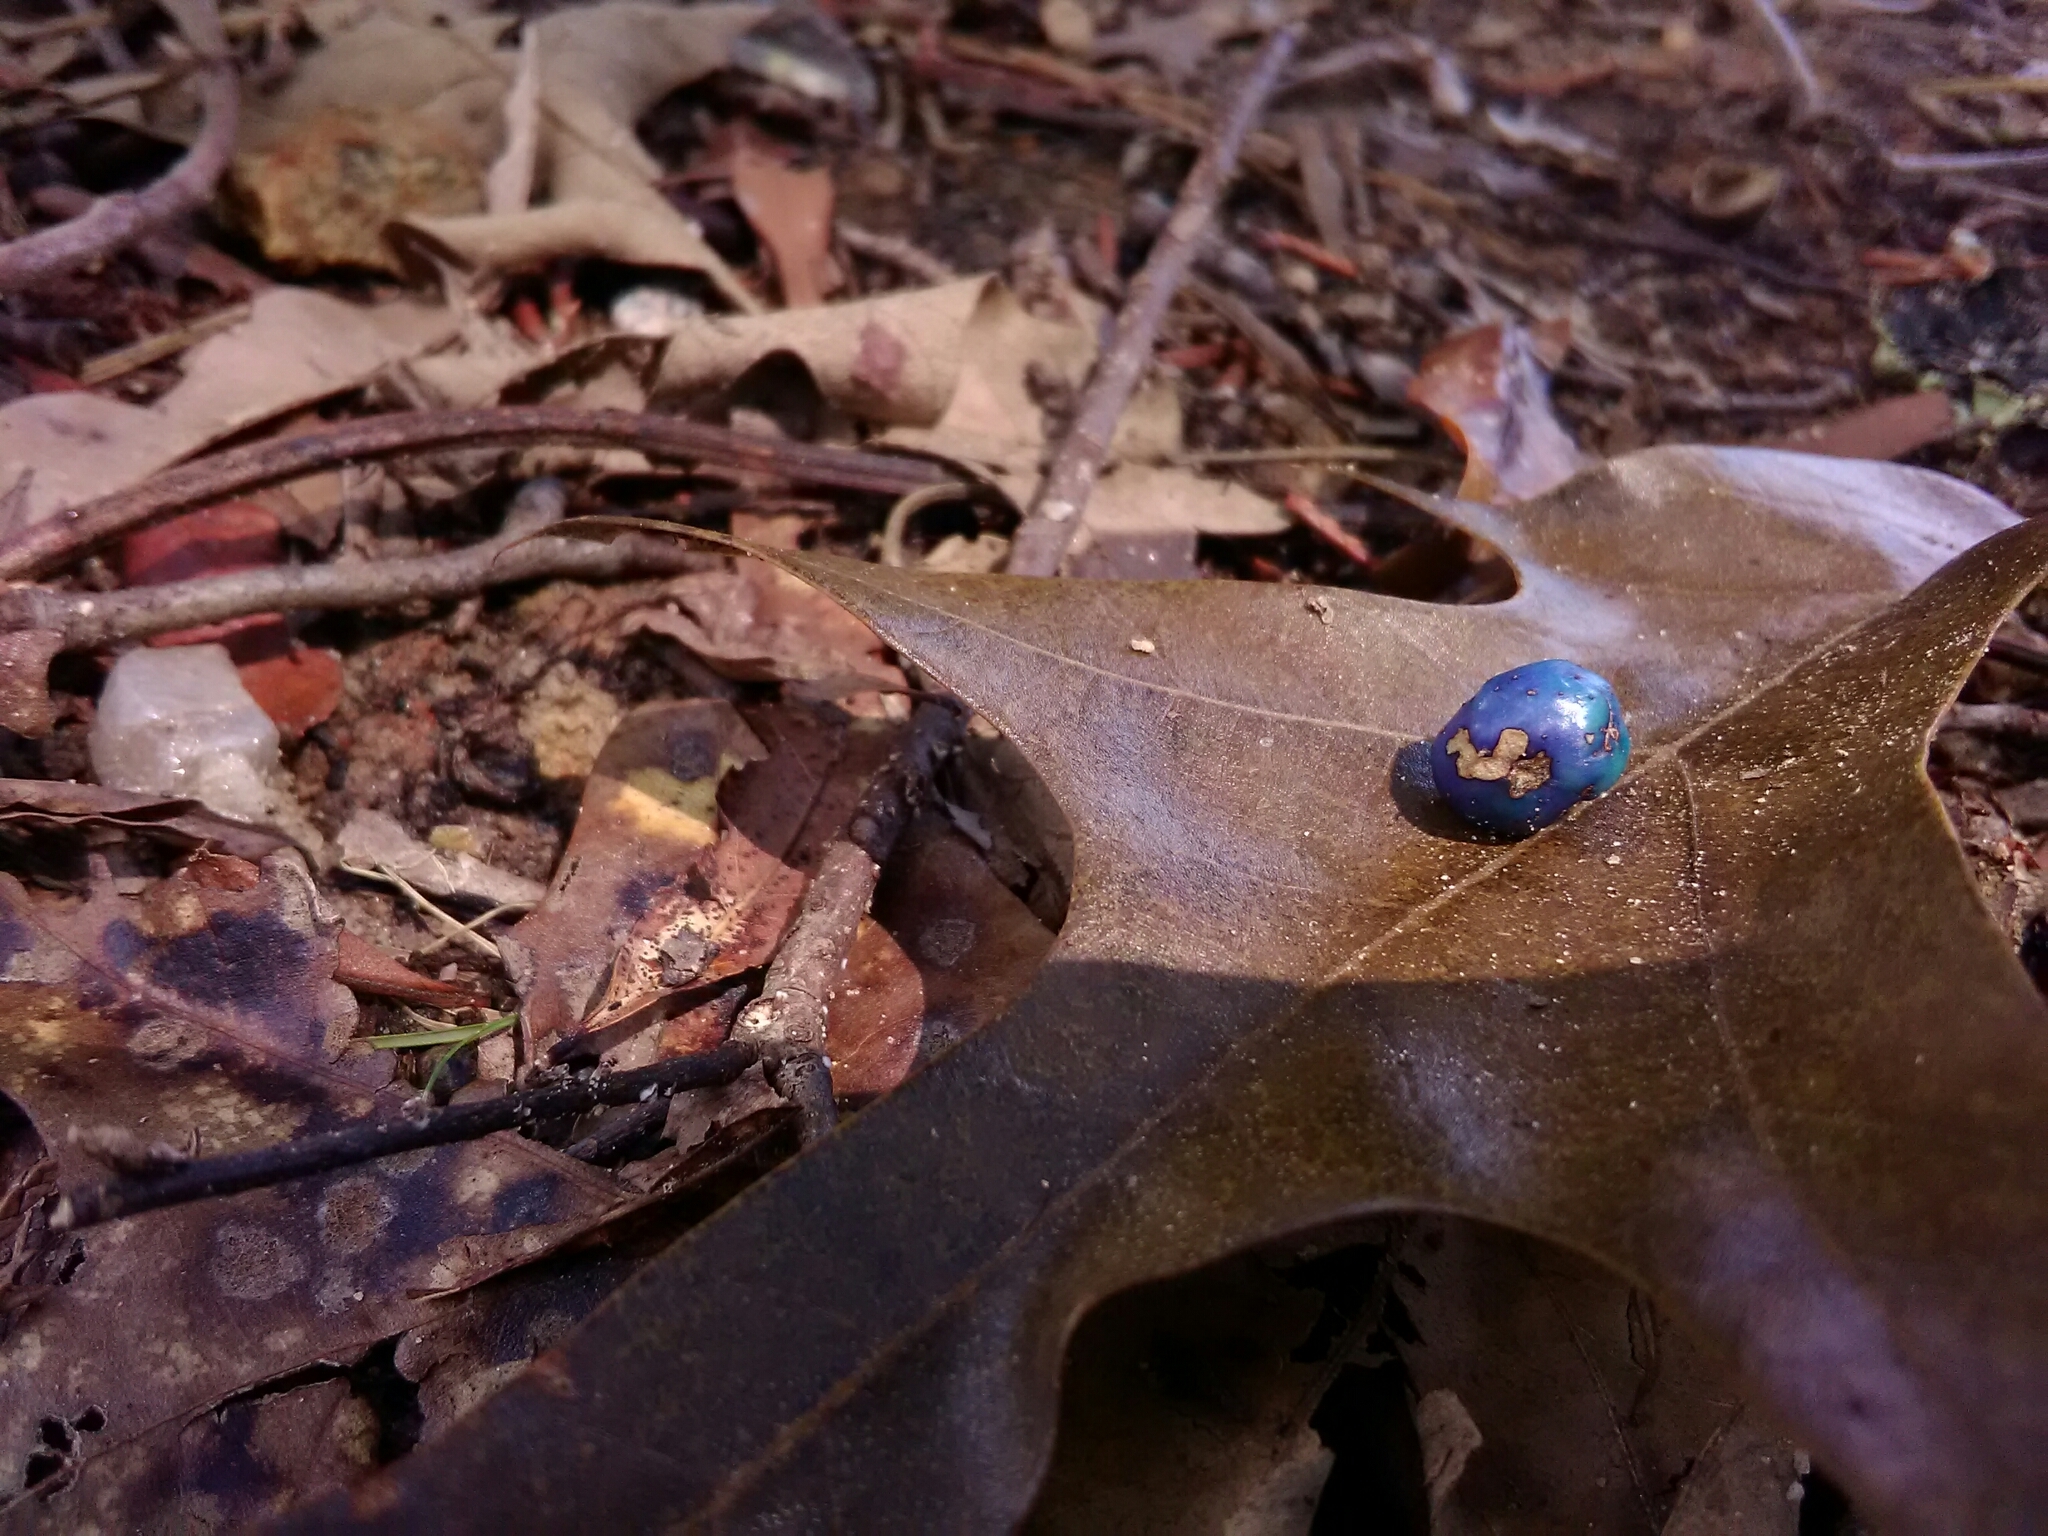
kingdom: Plantae
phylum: Tracheophyta
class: Magnoliopsida
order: Vitales
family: Vitaceae
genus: Ampelopsis
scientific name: Ampelopsis glandulosa
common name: Amur peppervine
